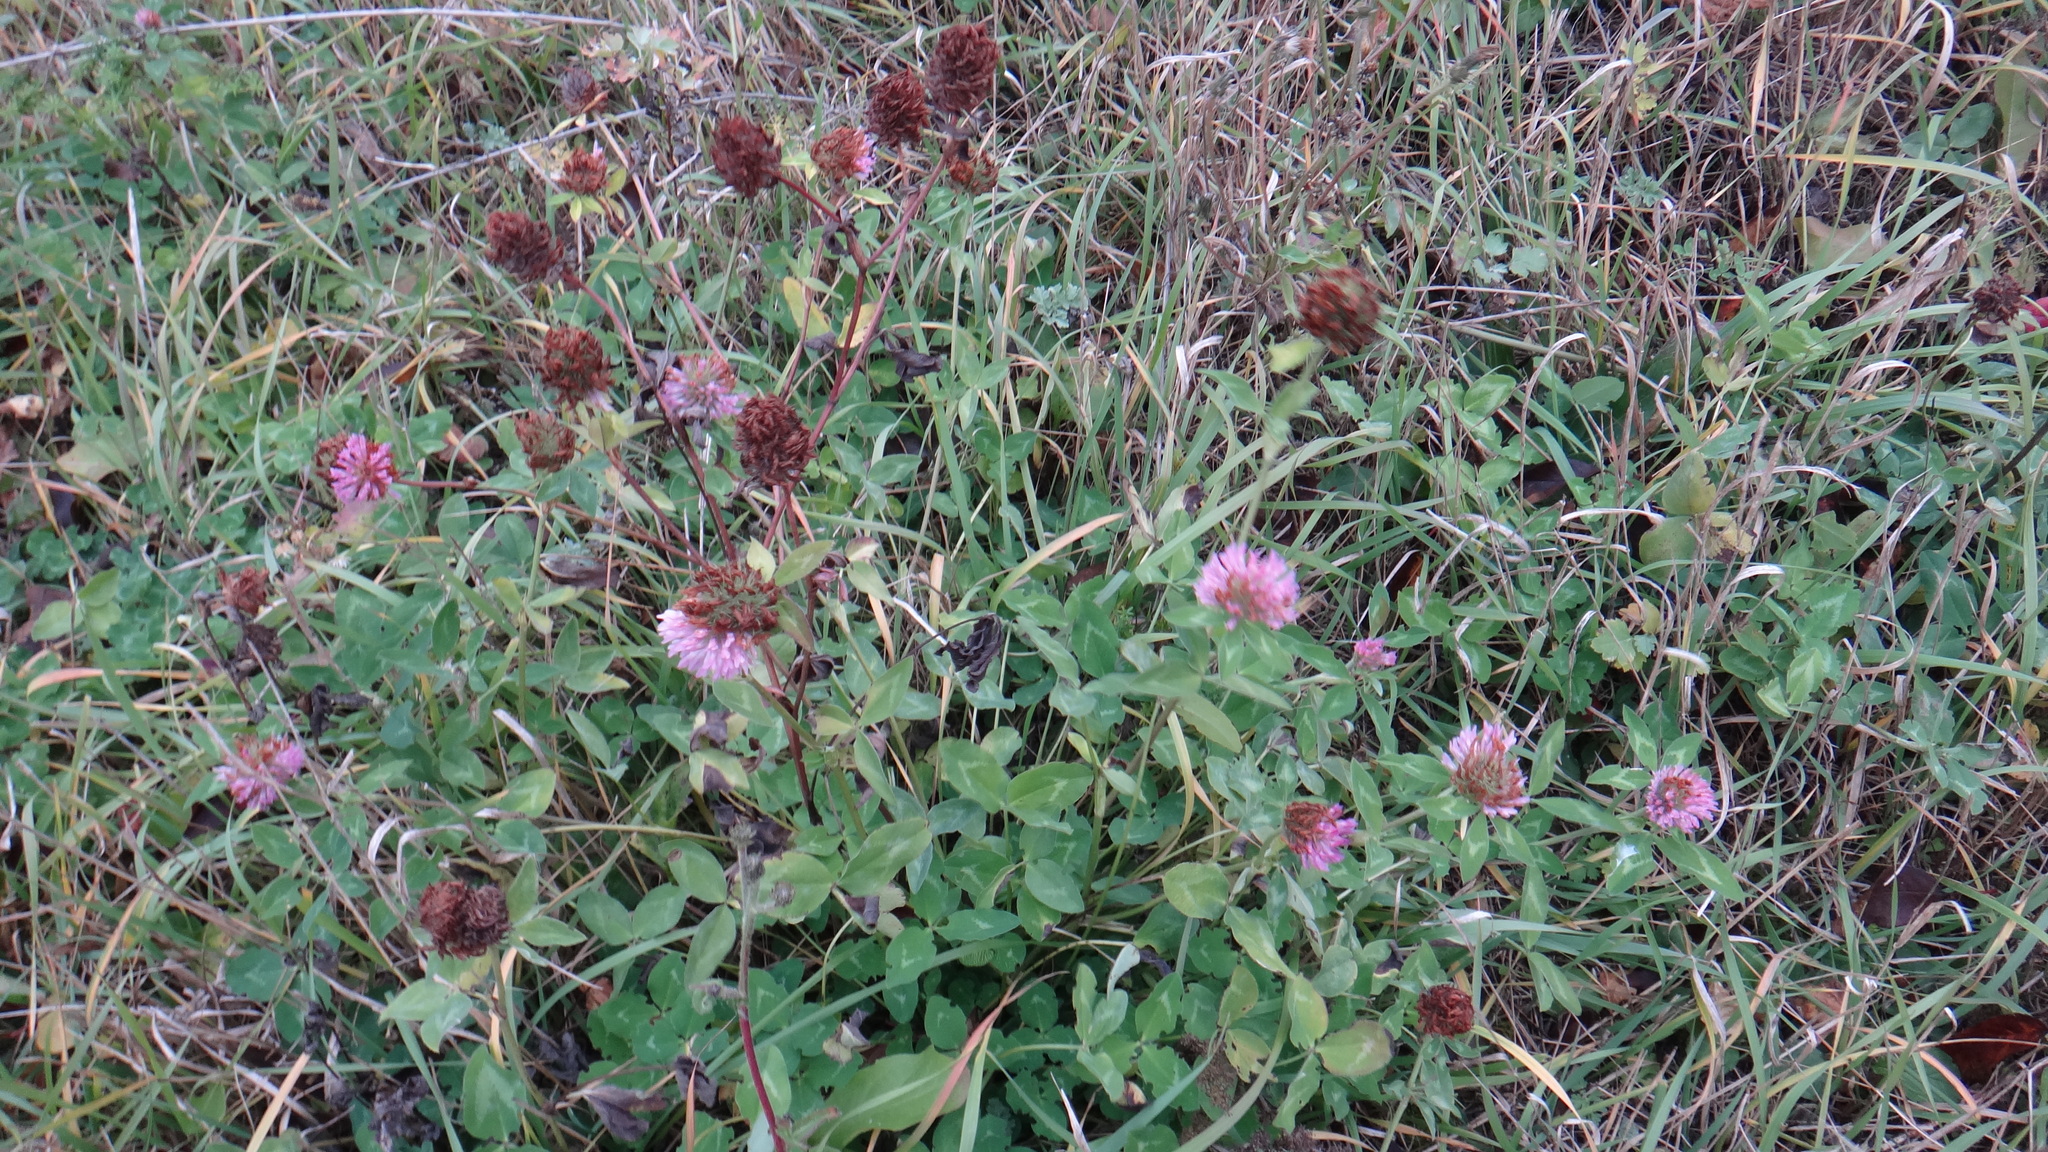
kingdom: Plantae
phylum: Tracheophyta
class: Magnoliopsida
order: Fabales
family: Fabaceae
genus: Trifolium
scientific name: Trifolium pratense
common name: Red clover
